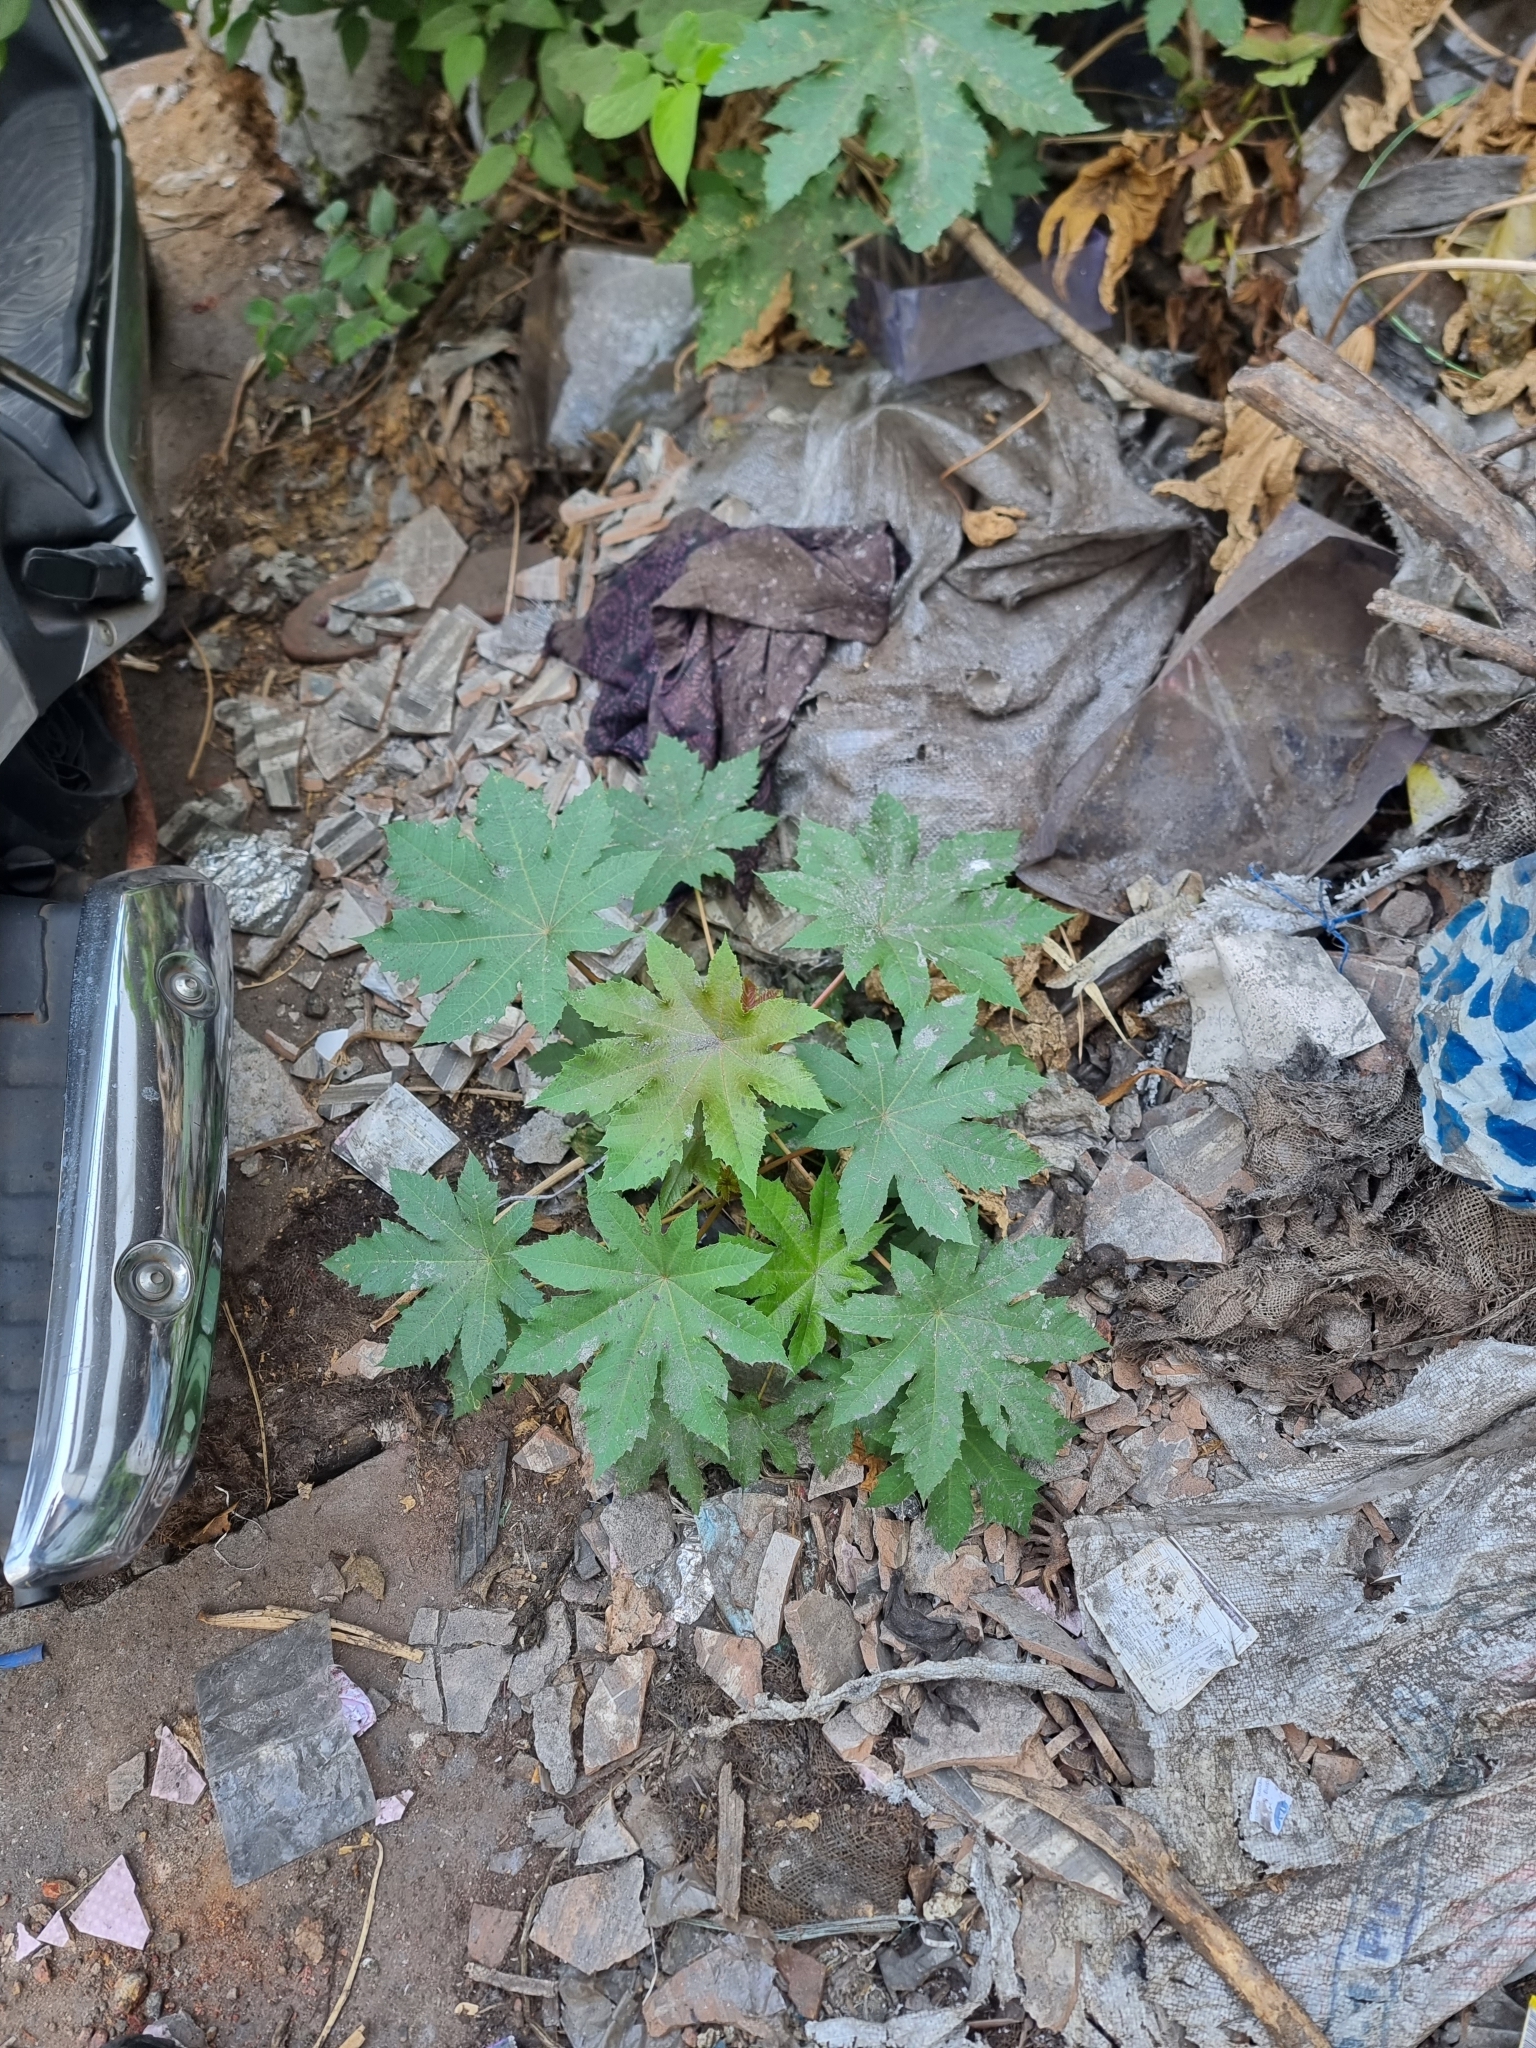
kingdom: Plantae
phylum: Tracheophyta
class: Magnoliopsida
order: Malpighiales
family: Euphorbiaceae
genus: Ricinus
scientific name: Ricinus communis
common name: Castor-oil-plant
